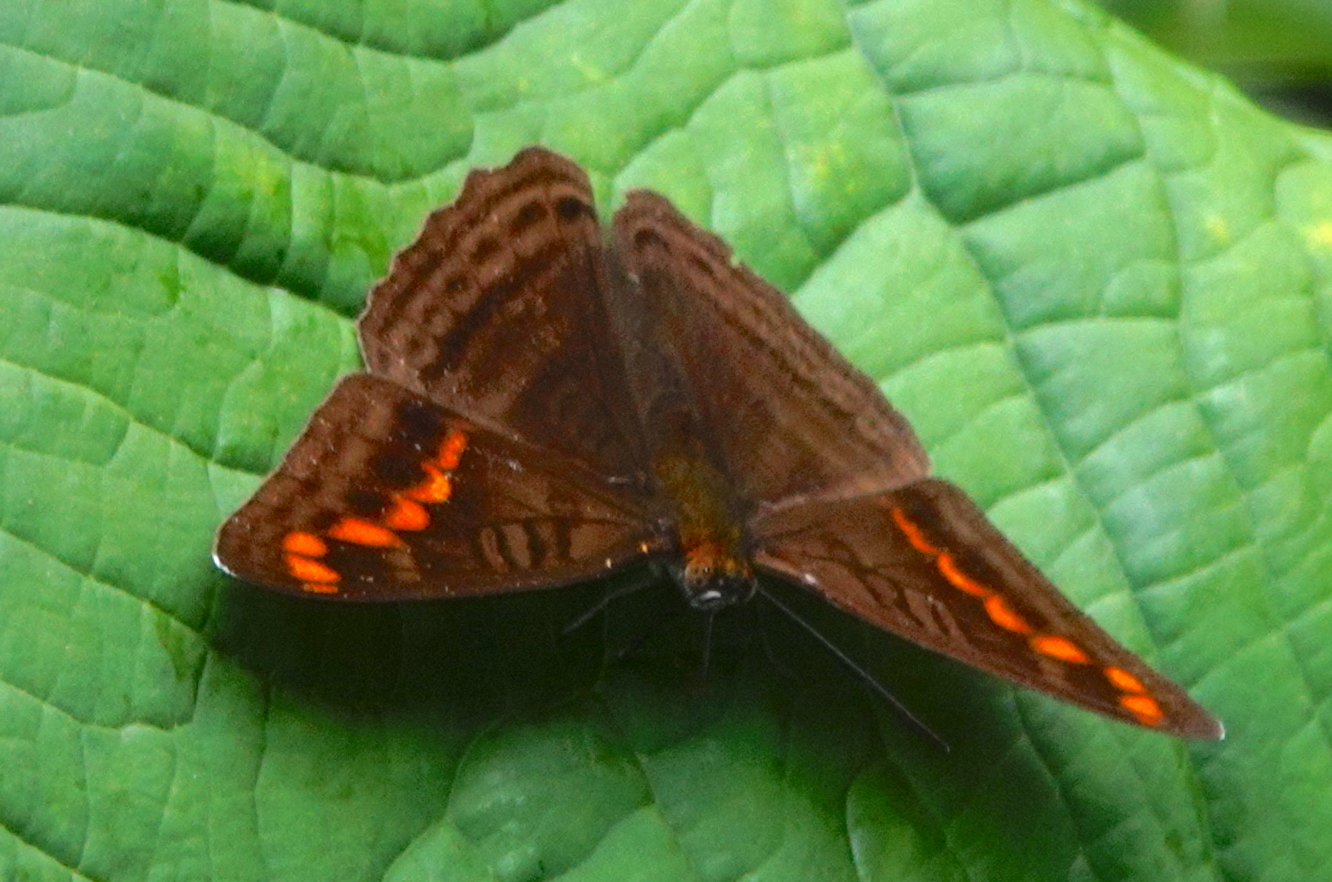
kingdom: Animalia
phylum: Arthropoda
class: Insecta
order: Lepidoptera
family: Nymphalidae
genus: Limenitis
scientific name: Limenitis levona
